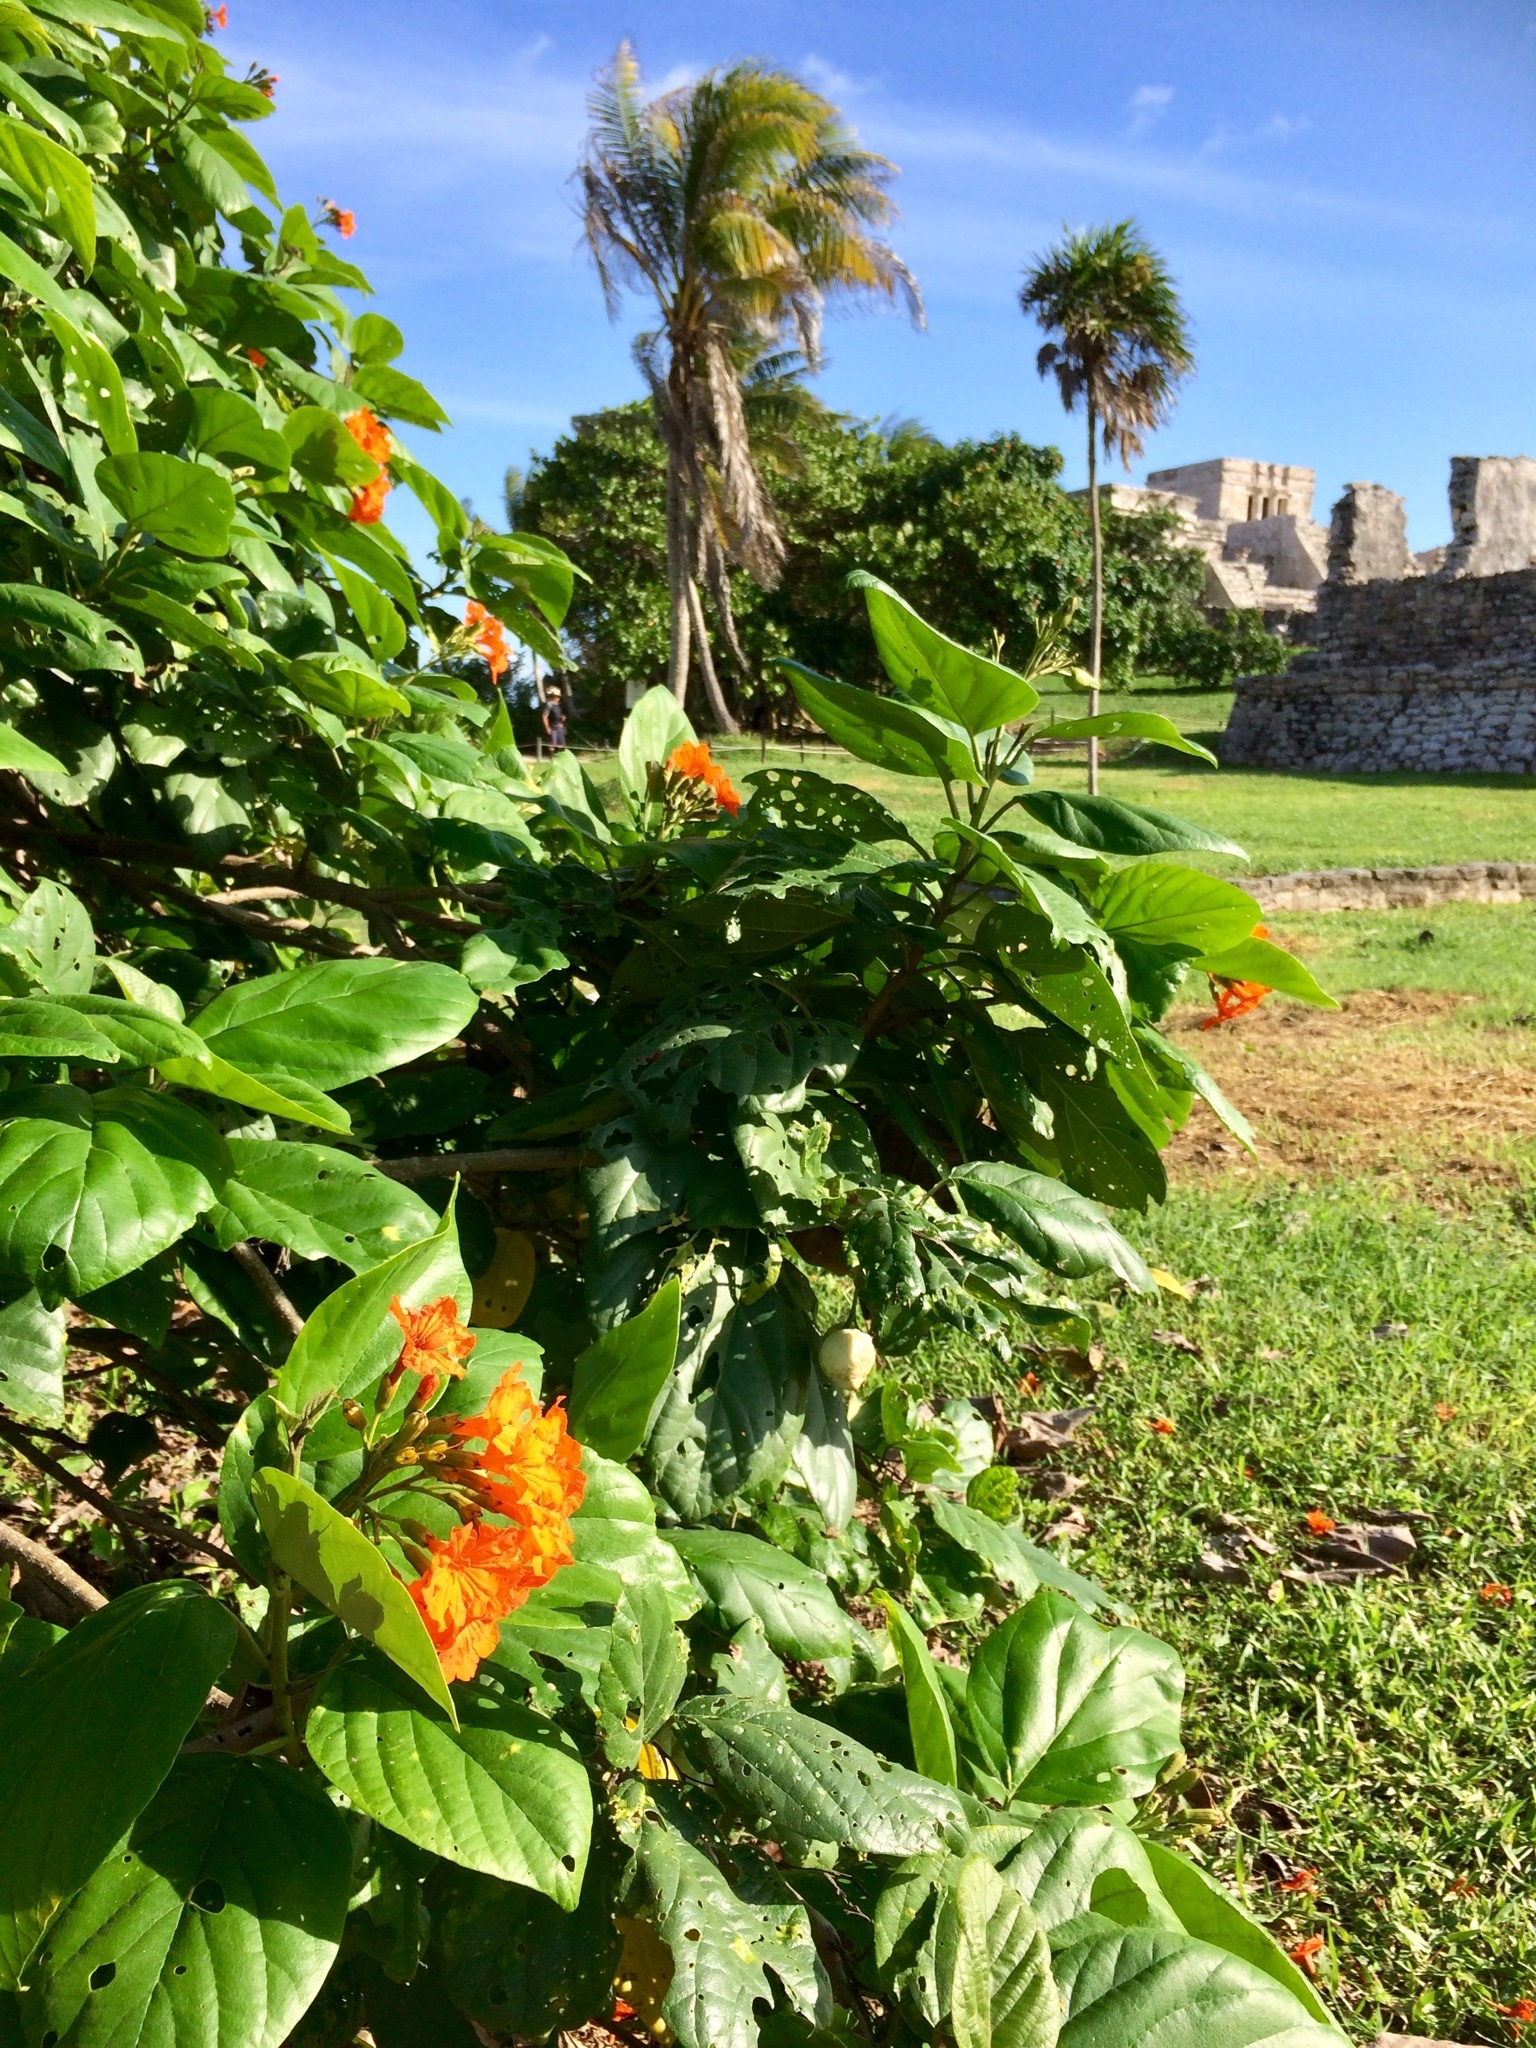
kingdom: Plantae
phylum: Tracheophyta
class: Magnoliopsida
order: Boraginales
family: Cordiaceae
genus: Cordia
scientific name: Cordia sebestena
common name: Largeleaf geigertree
